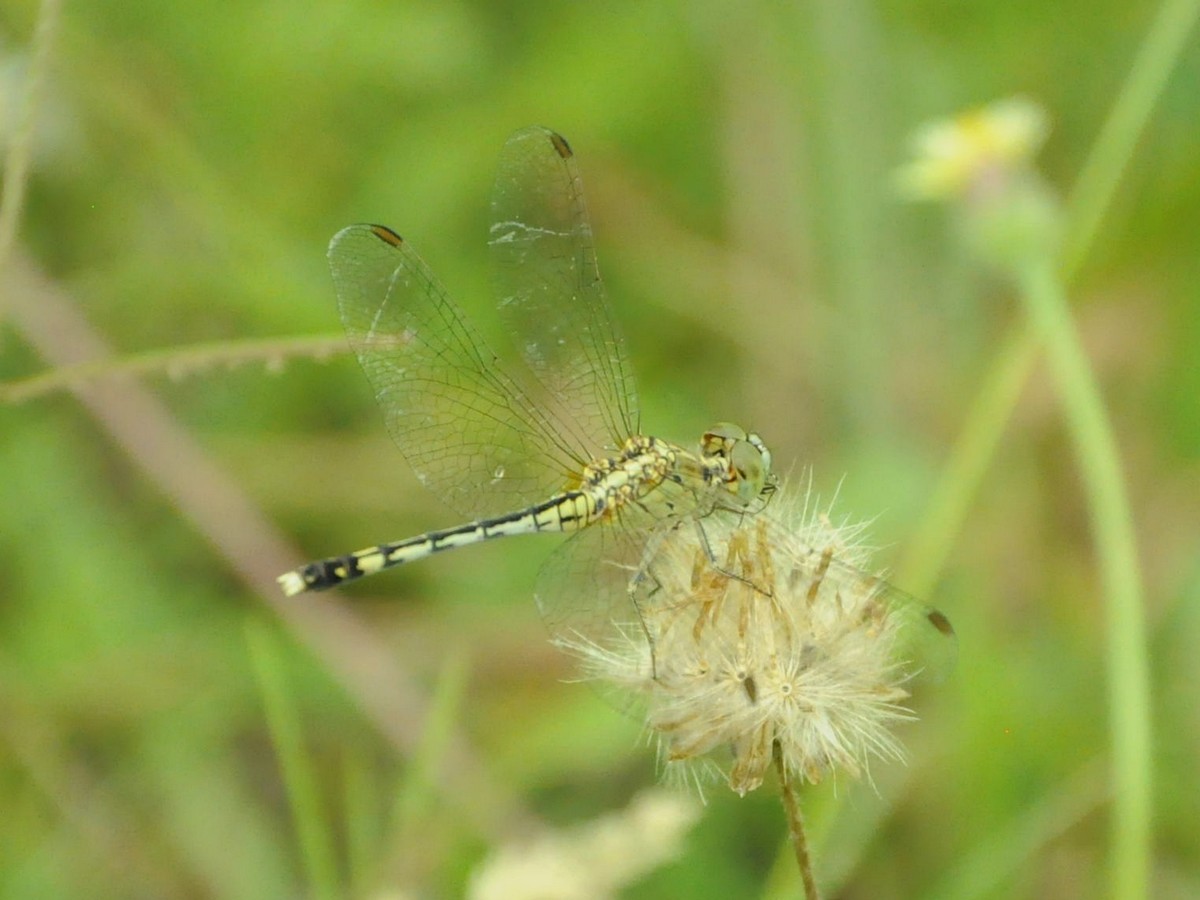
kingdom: Animalia
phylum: Arthropoda
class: Insecta
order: Odonata
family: Libellulidae
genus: Diplacodes
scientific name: Diplacodes trivialis
